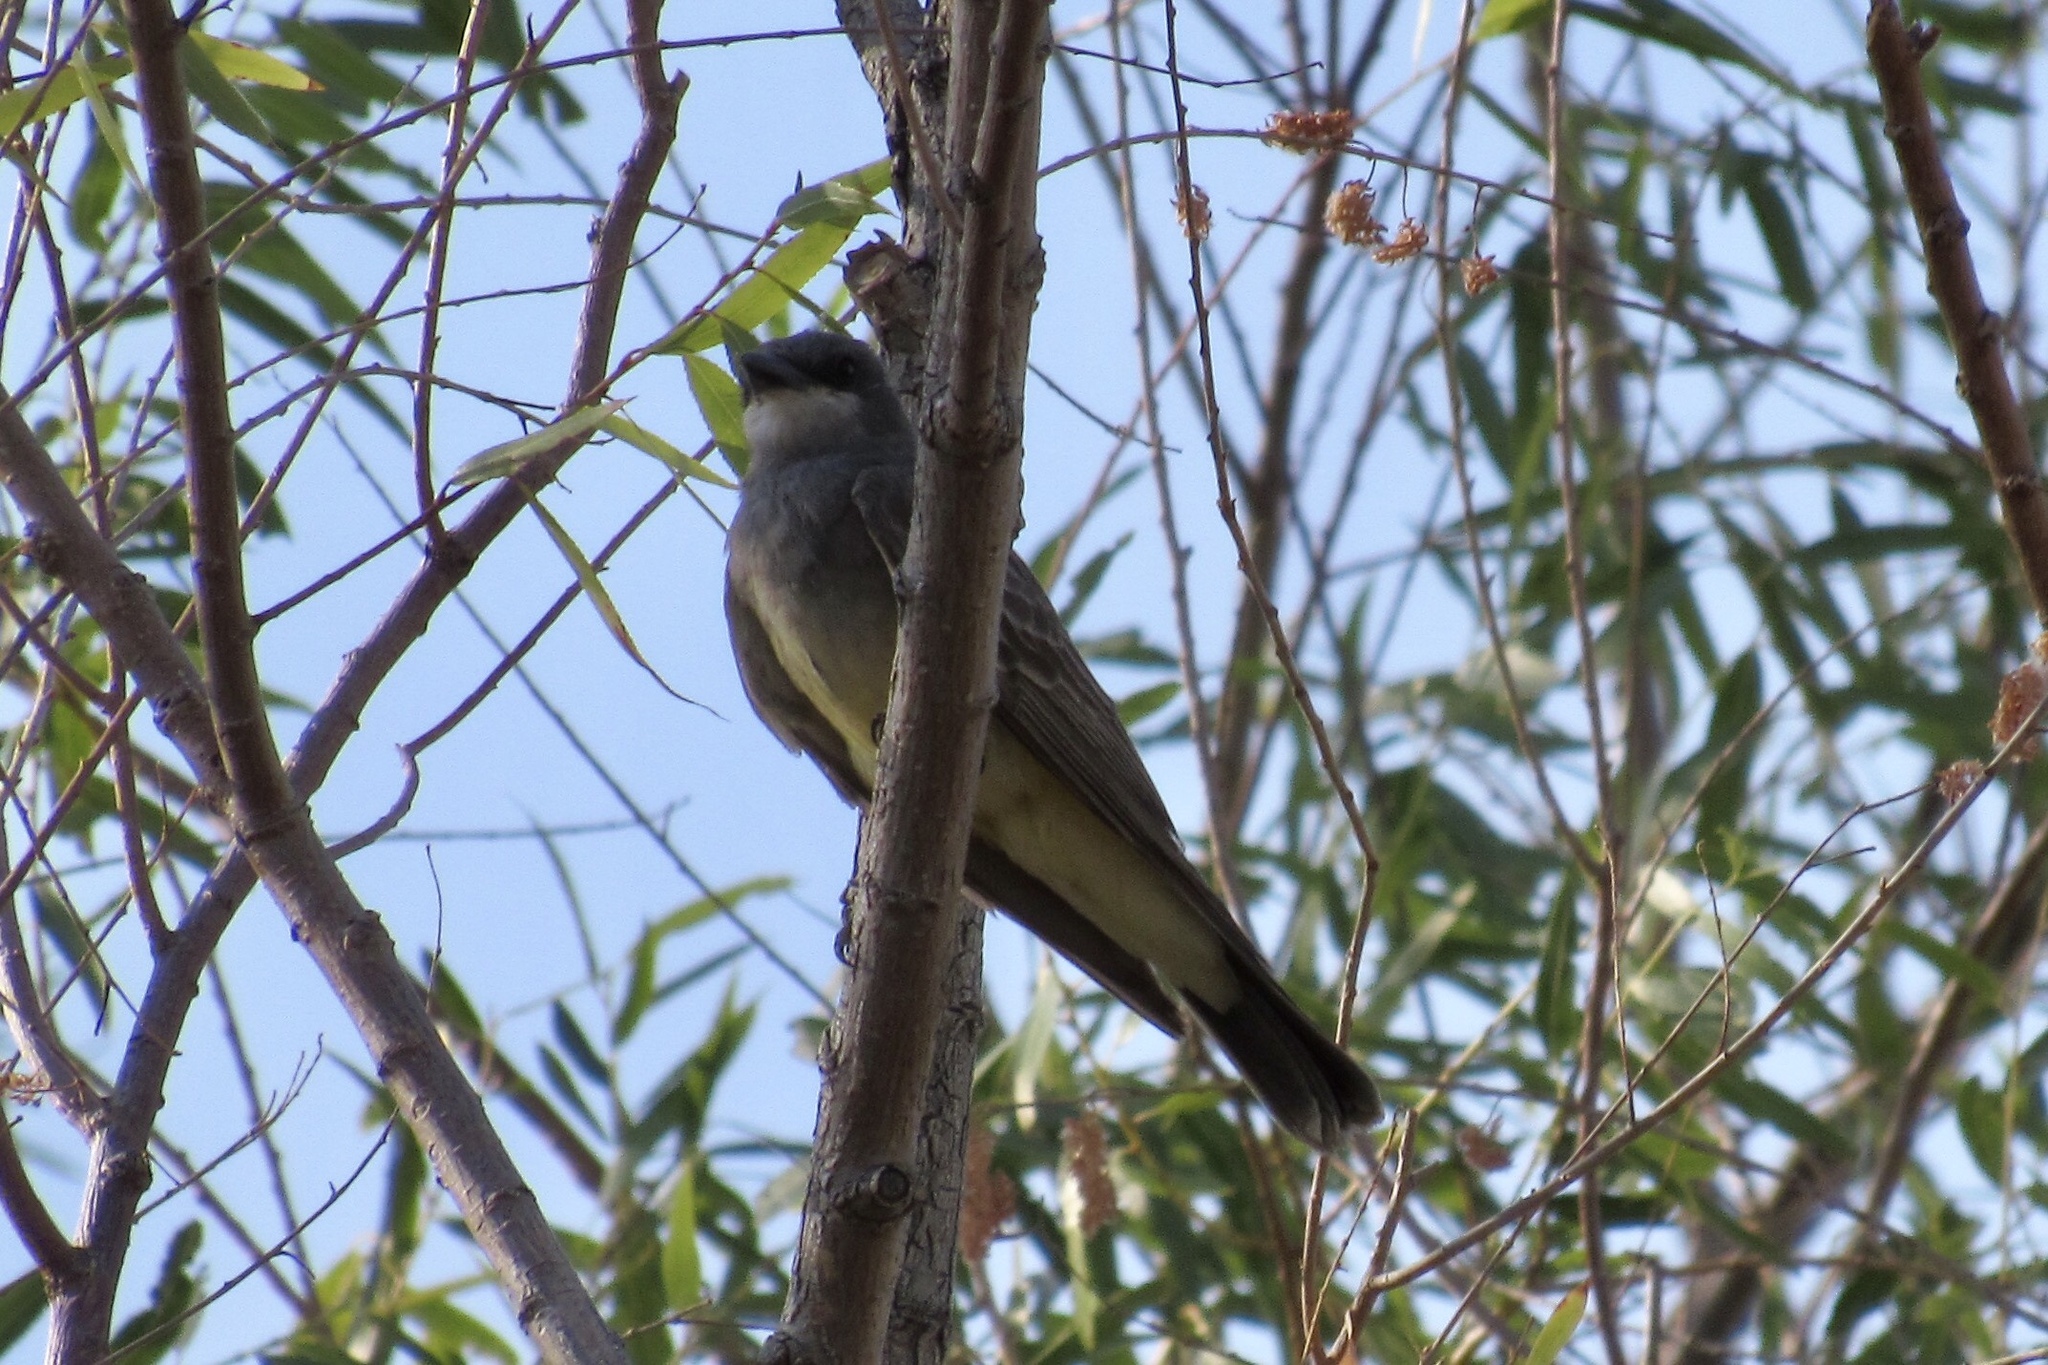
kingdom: Animalia
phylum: Chordata
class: Aves
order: Passeriformes
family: Tyrannidae
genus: Tyrannus
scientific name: Tyrannus vociferans
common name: Cassin's kingbird
